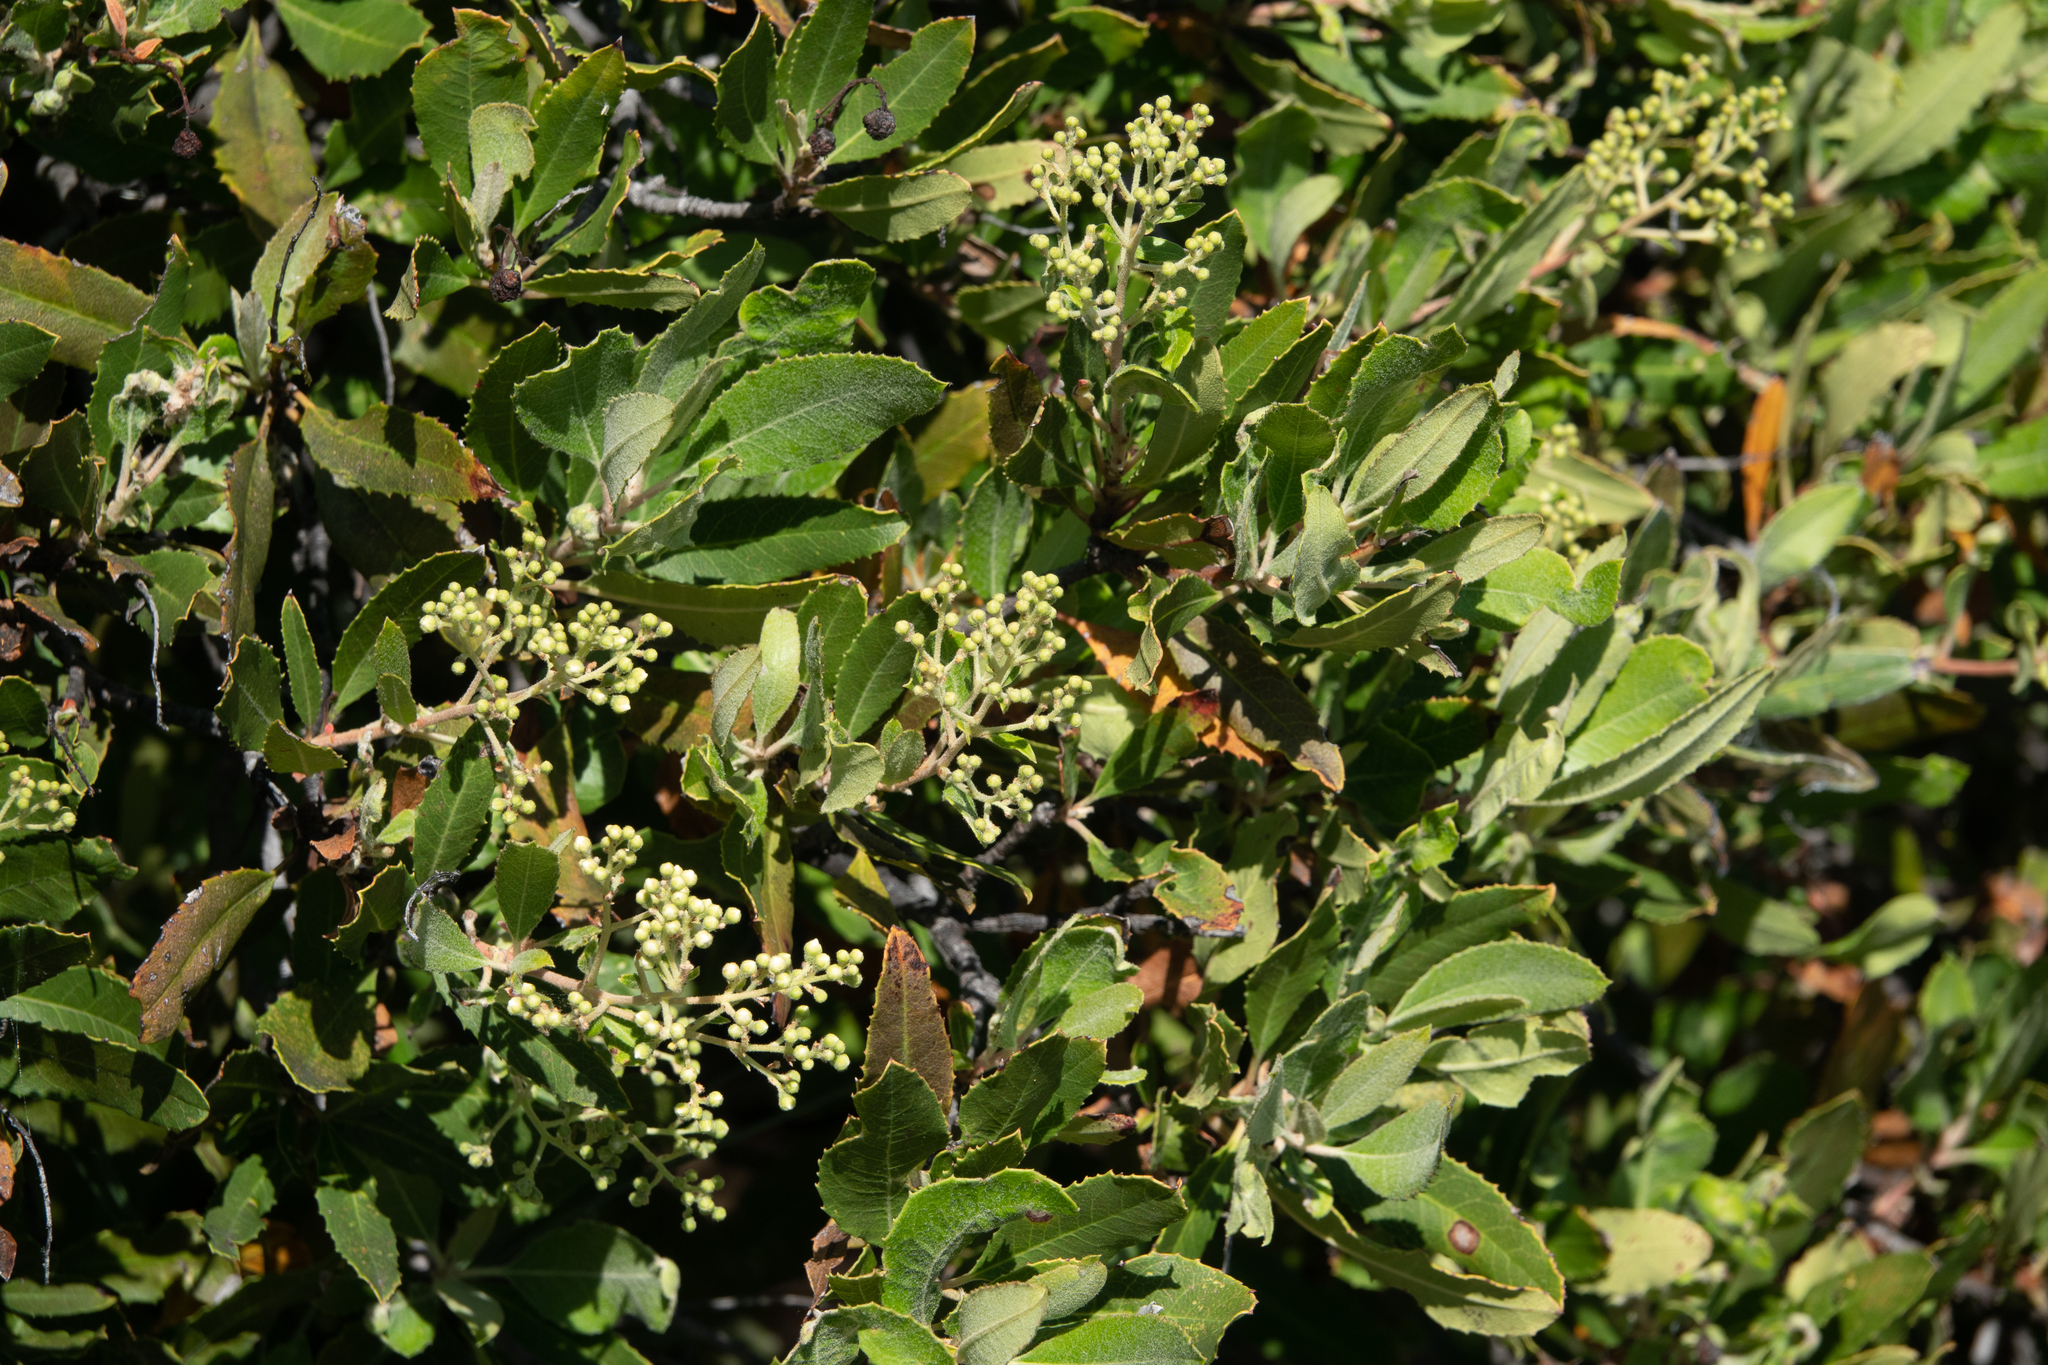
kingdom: Plantae
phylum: Tracheophyta
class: Magnoliopsida
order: Rosales
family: Rosaceae
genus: Heteromeles
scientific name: Heteromeles arbutifolia
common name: California-holly
